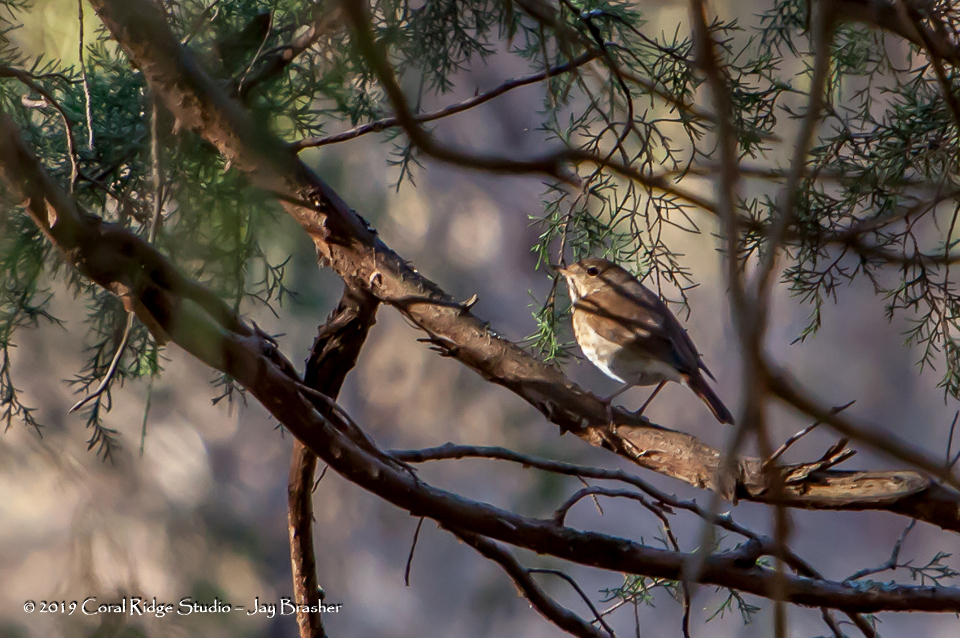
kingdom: Animalia
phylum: Chordata
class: Aves
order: Passeriformes
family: Turdidae
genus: Catharus
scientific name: Catharus guttatus
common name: Hermit thrush
